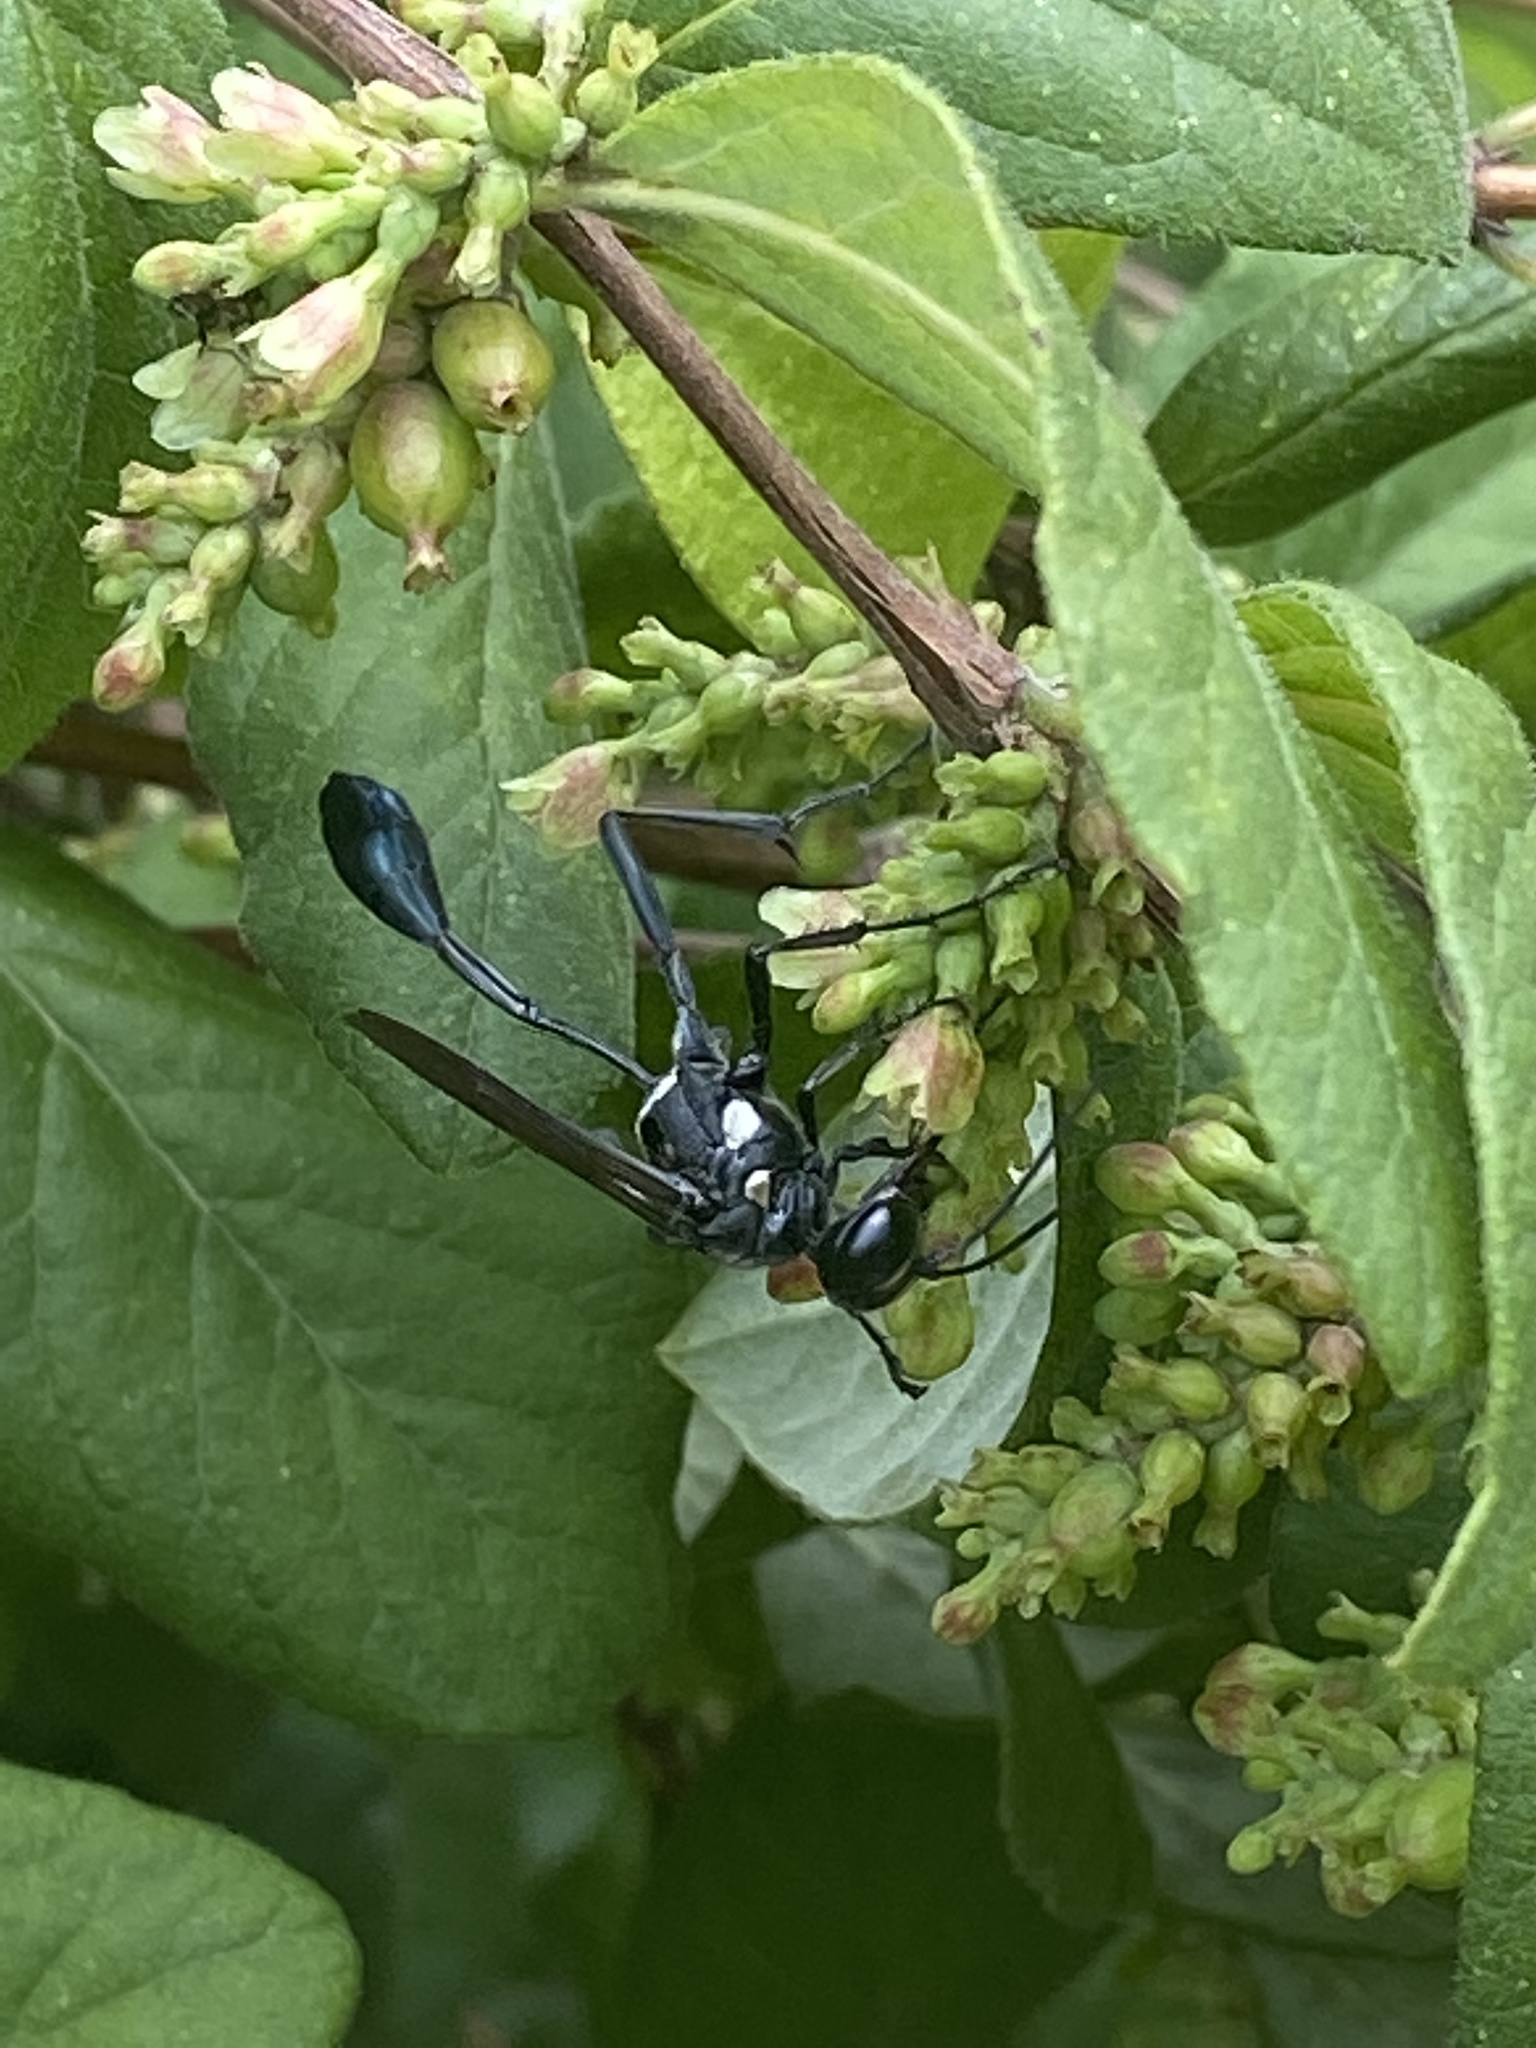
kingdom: Animalia
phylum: Arthropoda
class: Insecta
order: Hymenoptera
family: Sphecidae
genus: Eremnophila
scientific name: Eremnophila aureonotata
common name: Gold-marked thread-waisted wasp
